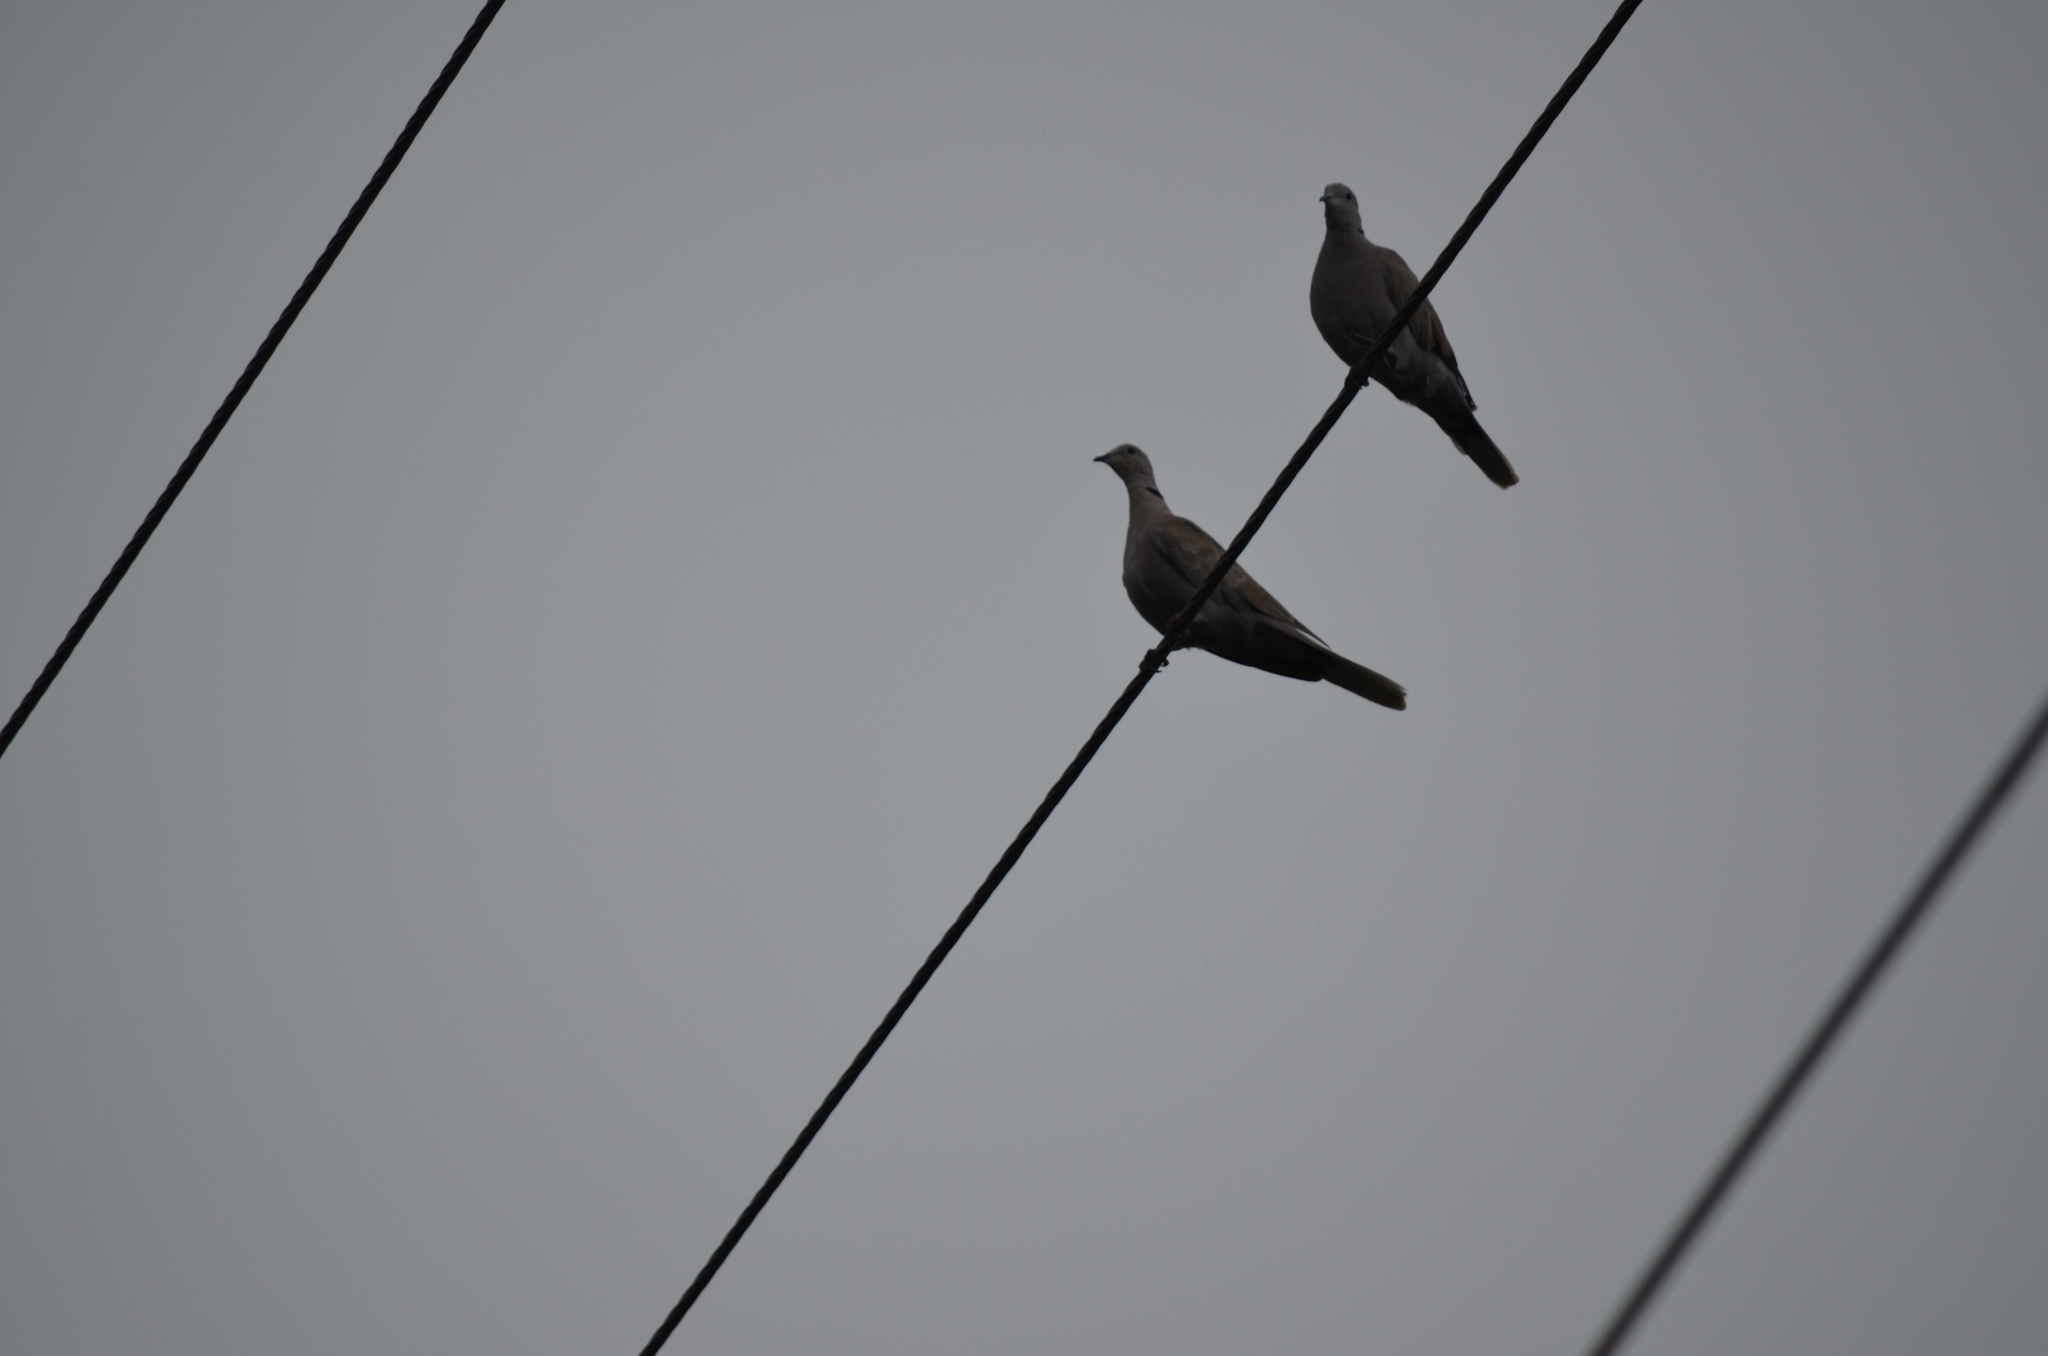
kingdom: Animalia
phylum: Chordata
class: Aves
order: Columbiformes
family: Columbidae
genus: Streptopelia
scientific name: Streptopelia decaocto
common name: Eurasian collared dove
